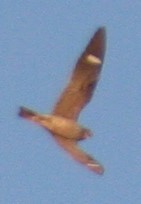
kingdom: Animalia
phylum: Chordata
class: Aves
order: Caprimulgiformes
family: Caprimulgidae
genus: Chordeiles
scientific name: Chordeiles minor
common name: Common nighthawk
